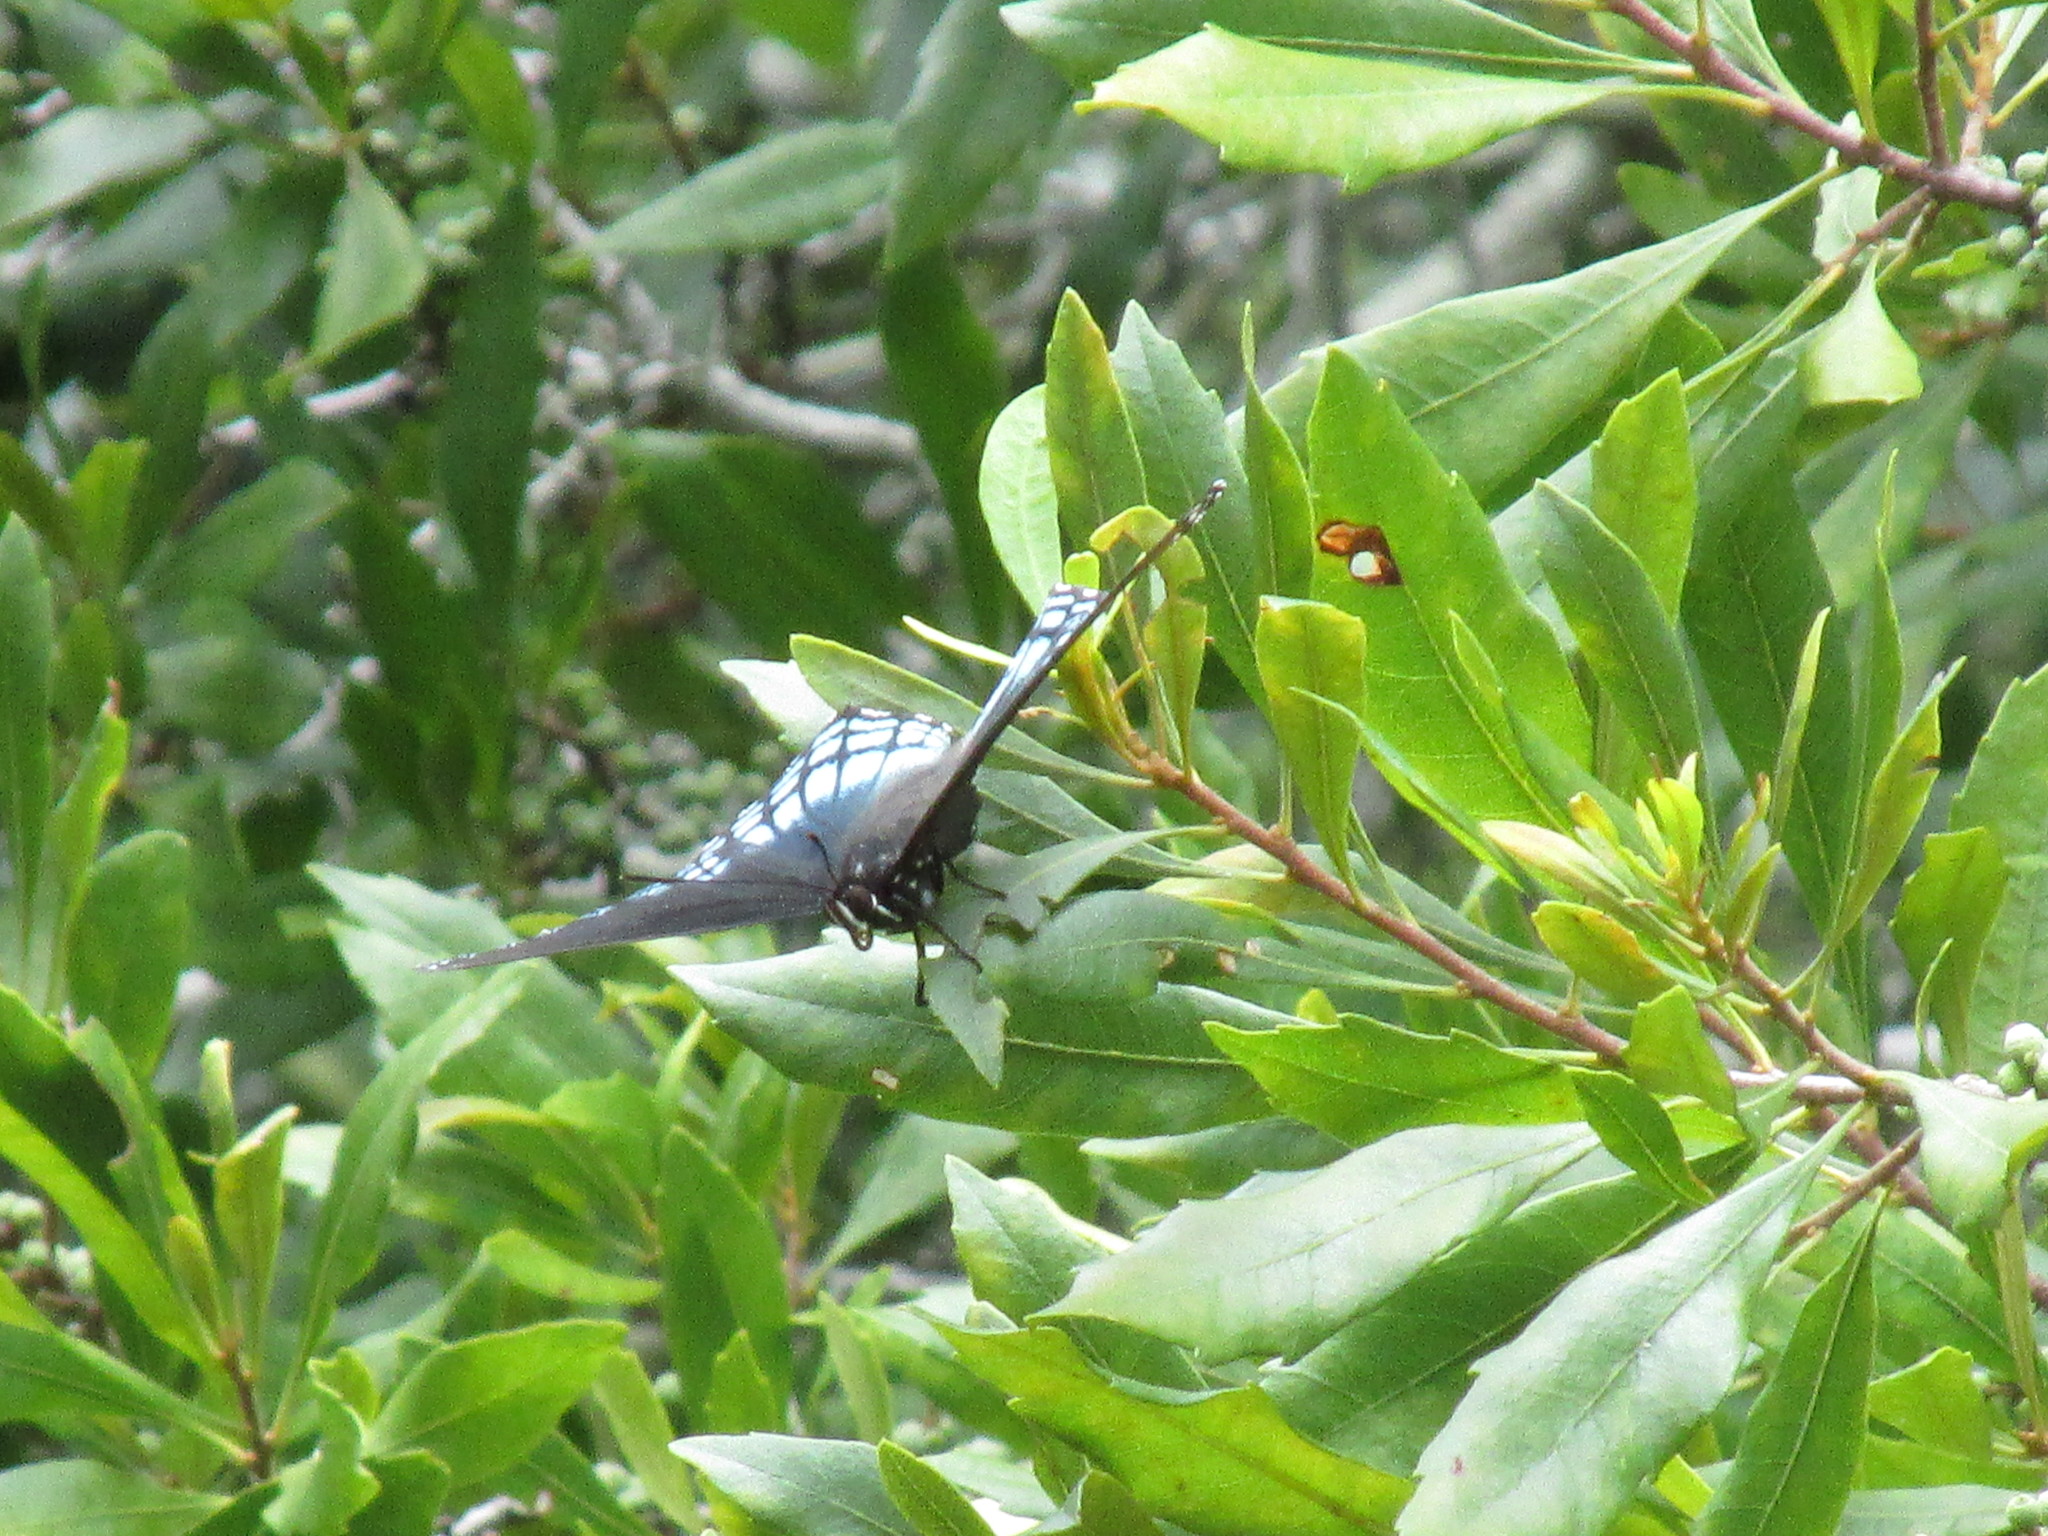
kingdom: Animalia
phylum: Arthropoda
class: Insecta
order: Lepidoptera
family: Nymphalidae
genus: Limenitis
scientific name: Limenitis astyanax
